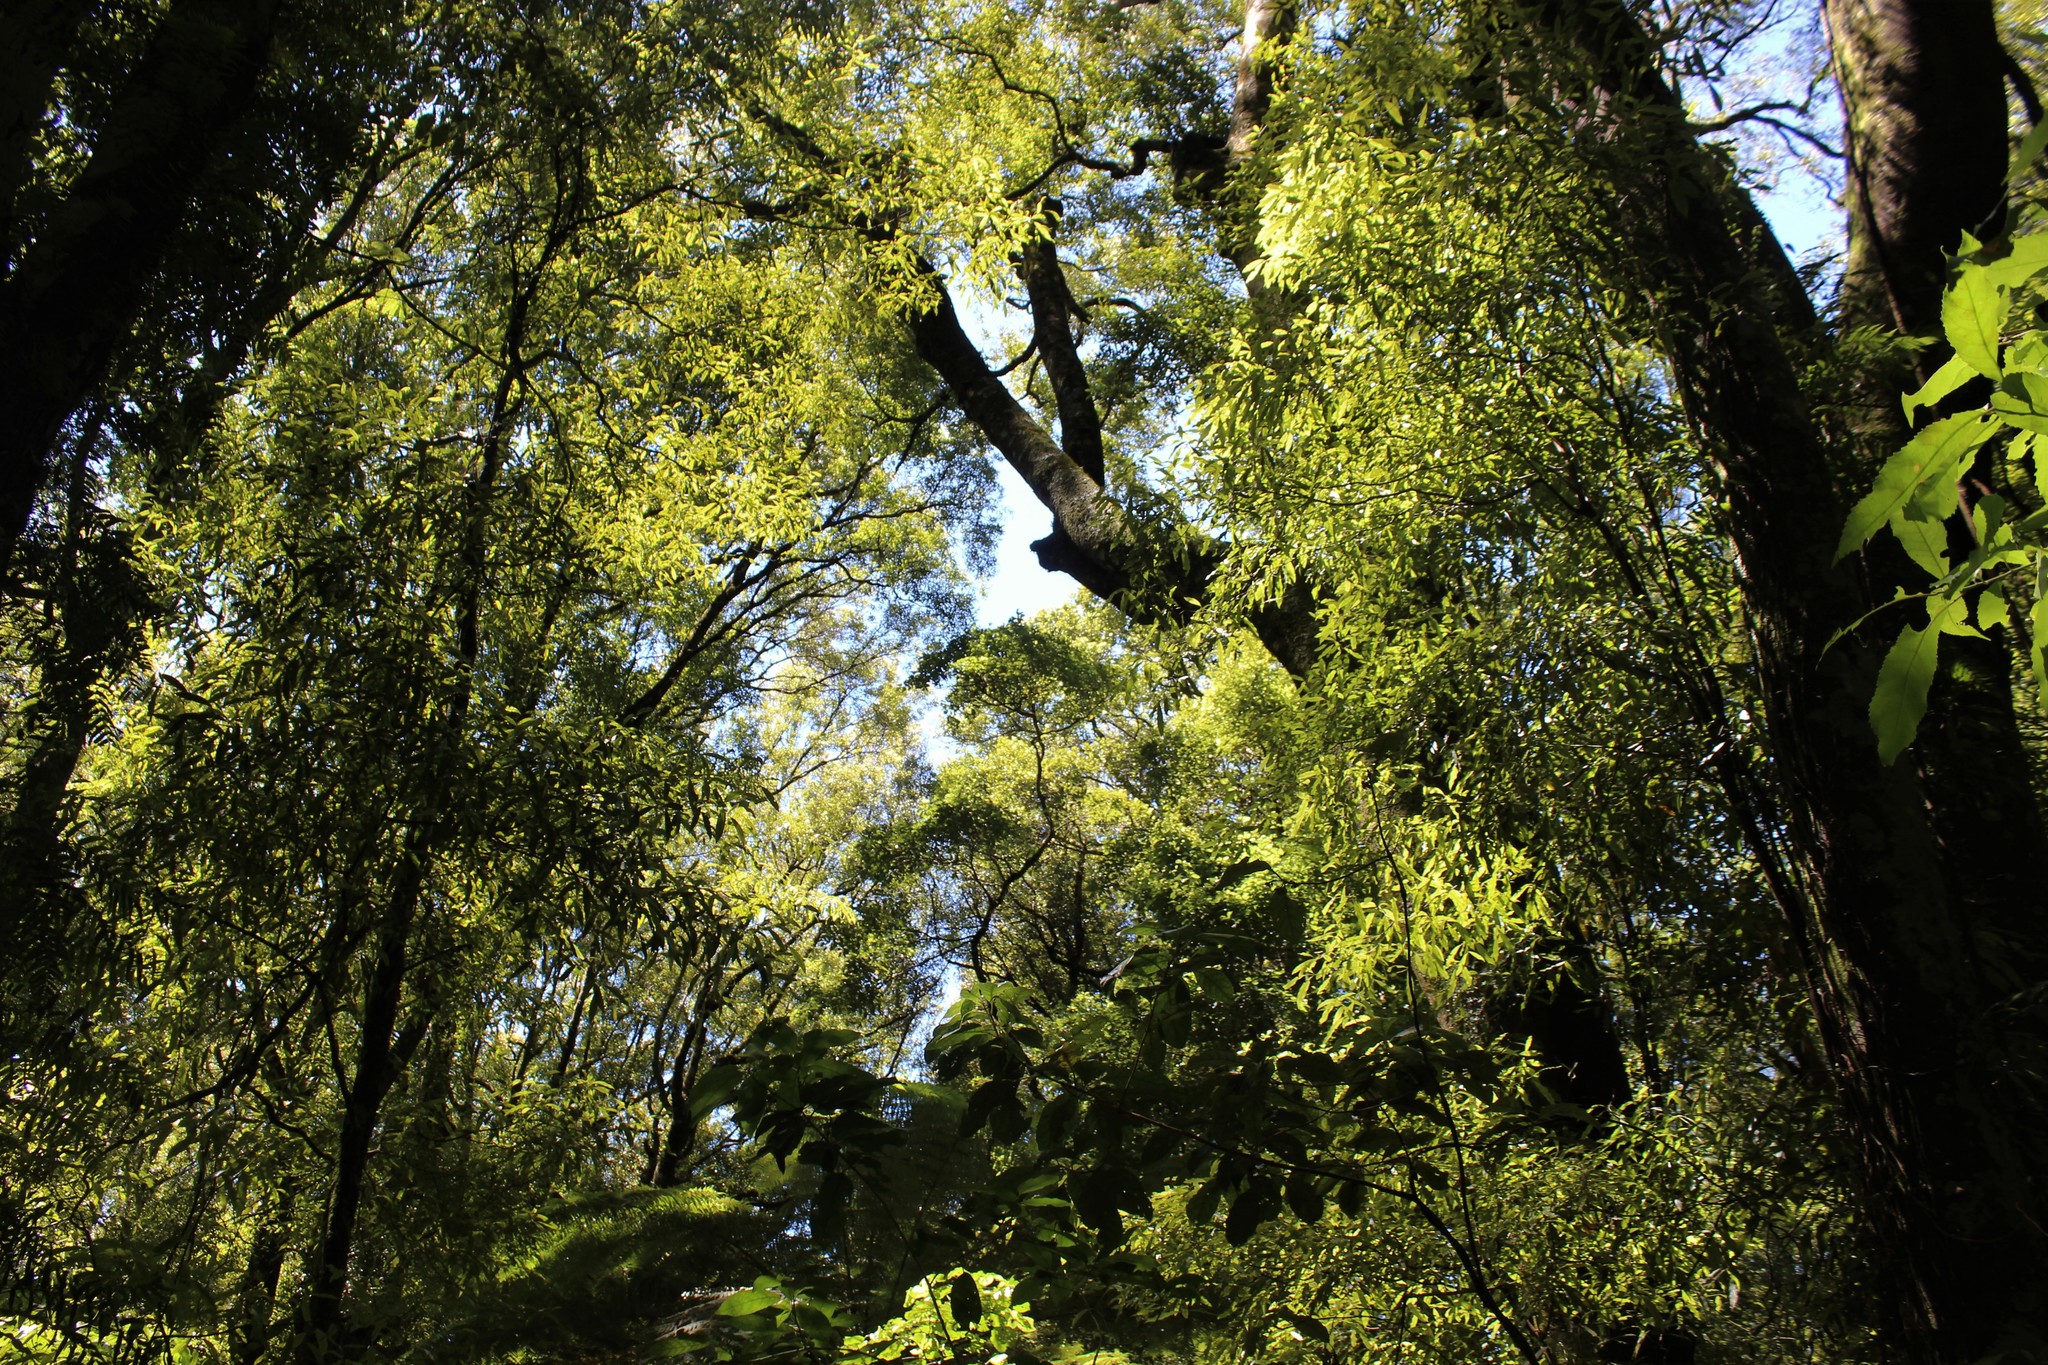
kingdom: Plantae
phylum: Tracheophyta
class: Magnoliopsida
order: Laurales
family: Lauraceae
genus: Beilschmiedia
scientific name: Beilschmiedia tawa
